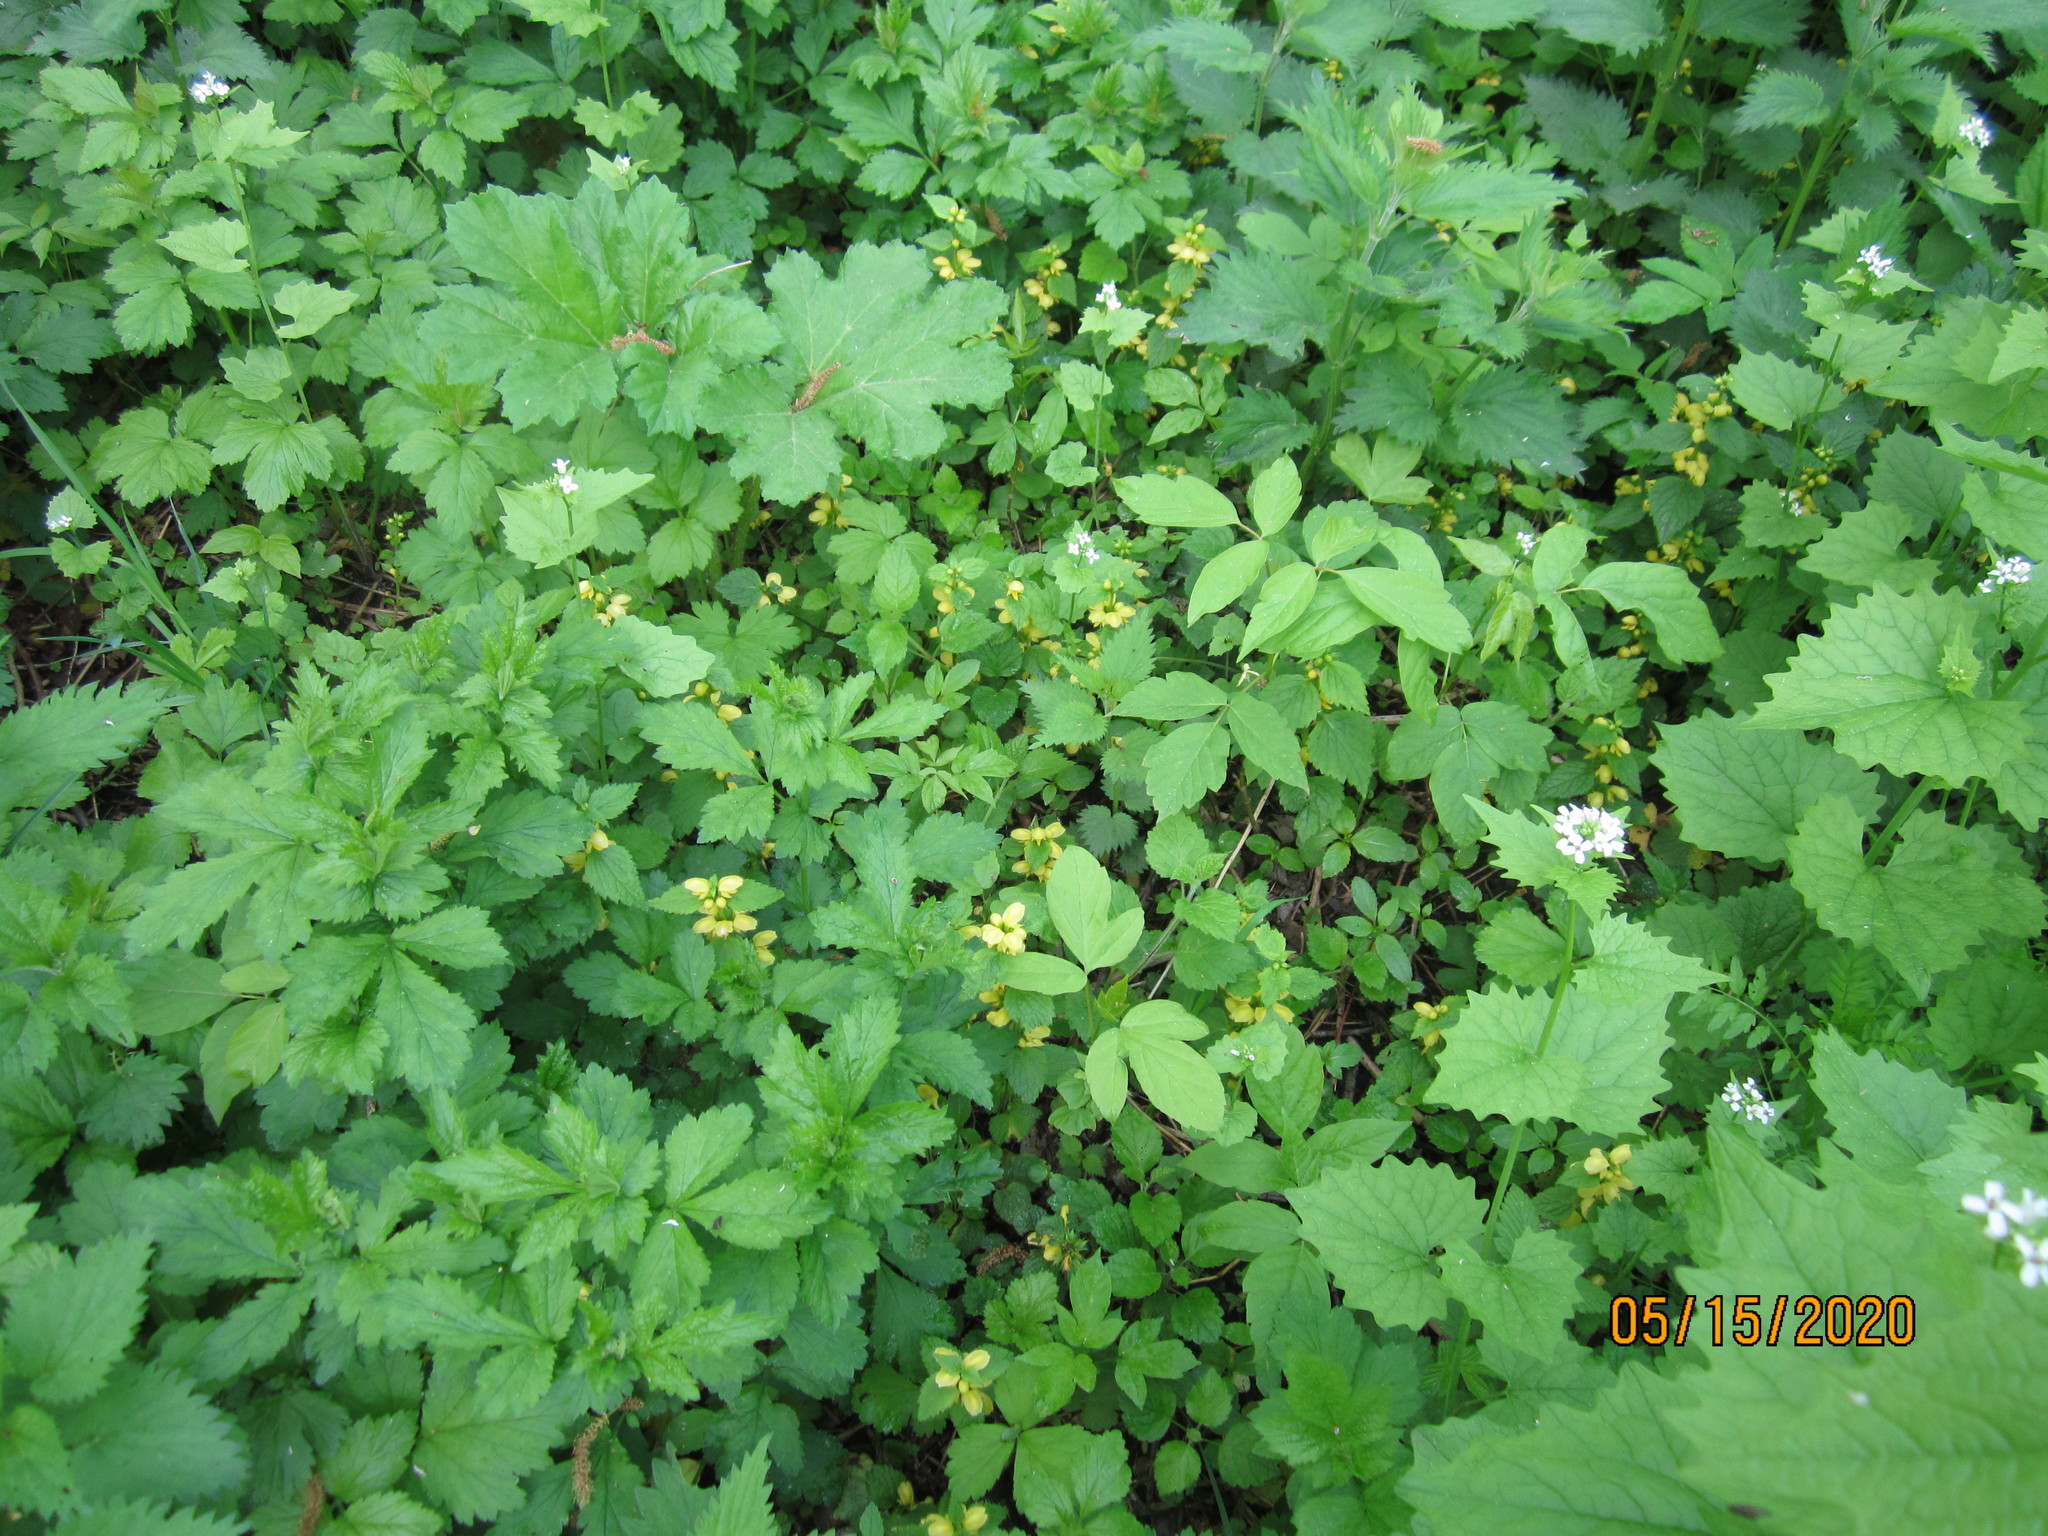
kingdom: Plantae
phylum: Tracheophyta
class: Magnoliopsida
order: Lamiales
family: Lamiaceae
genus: Lamium
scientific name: Lamium galeobdolon
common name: Yellow archangel
